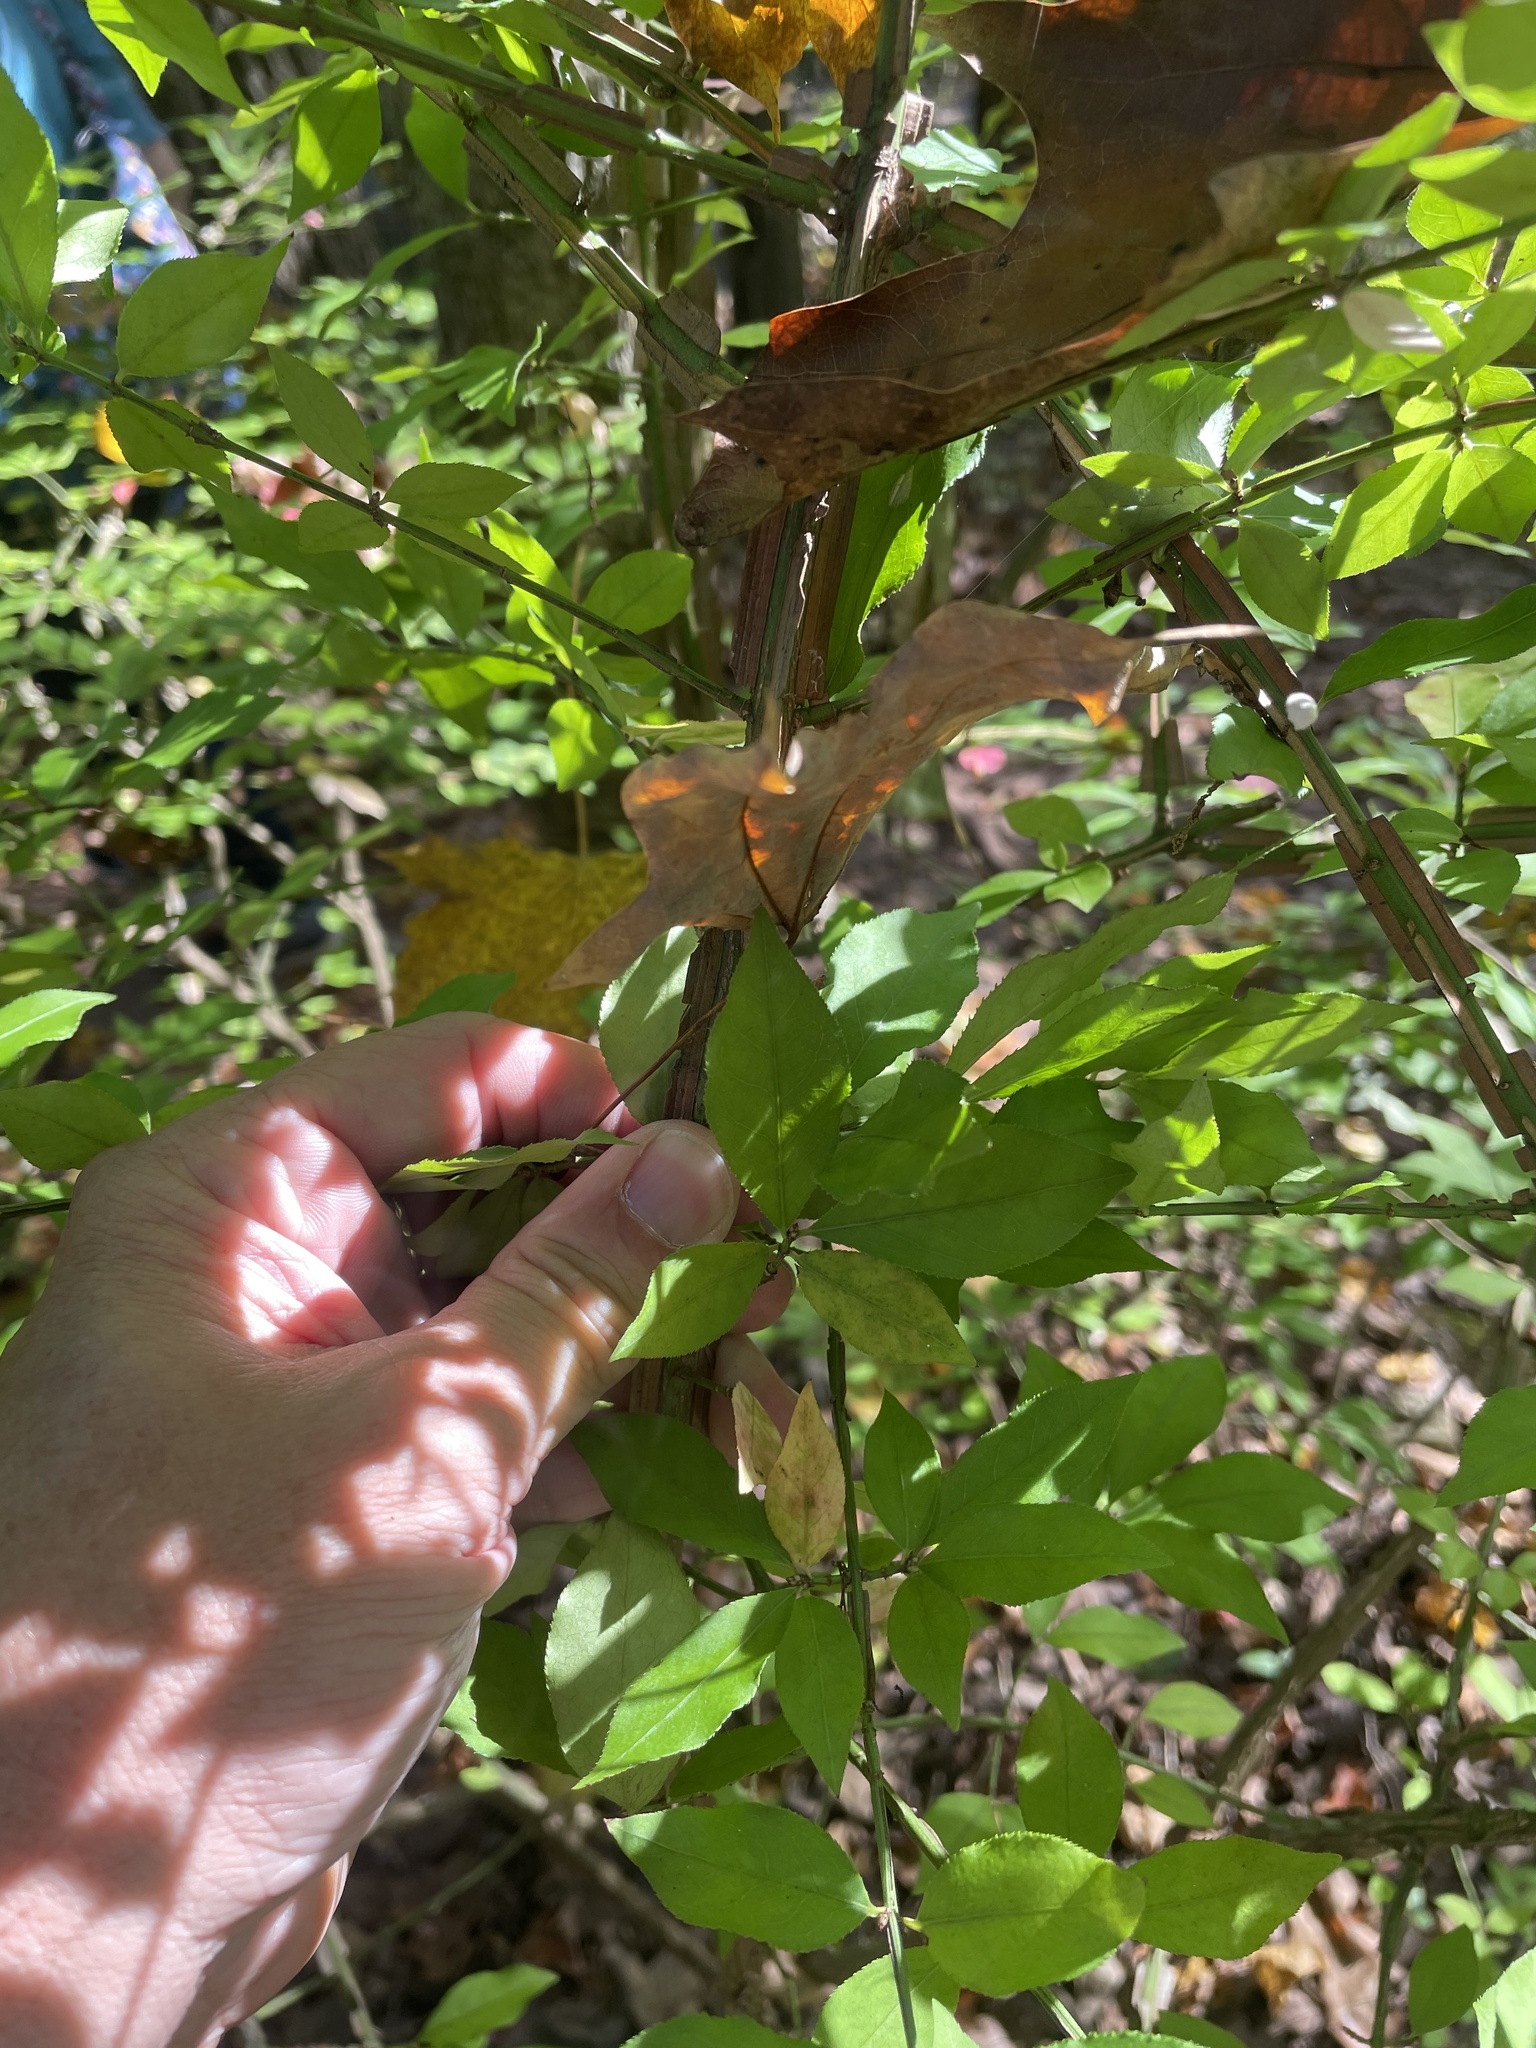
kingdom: Plantae
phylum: Tracheophyta
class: Magnoliopsida
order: Celastrales
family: Celastraceae
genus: Euonymus
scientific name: Euonymus alatus
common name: Winged euonymus
